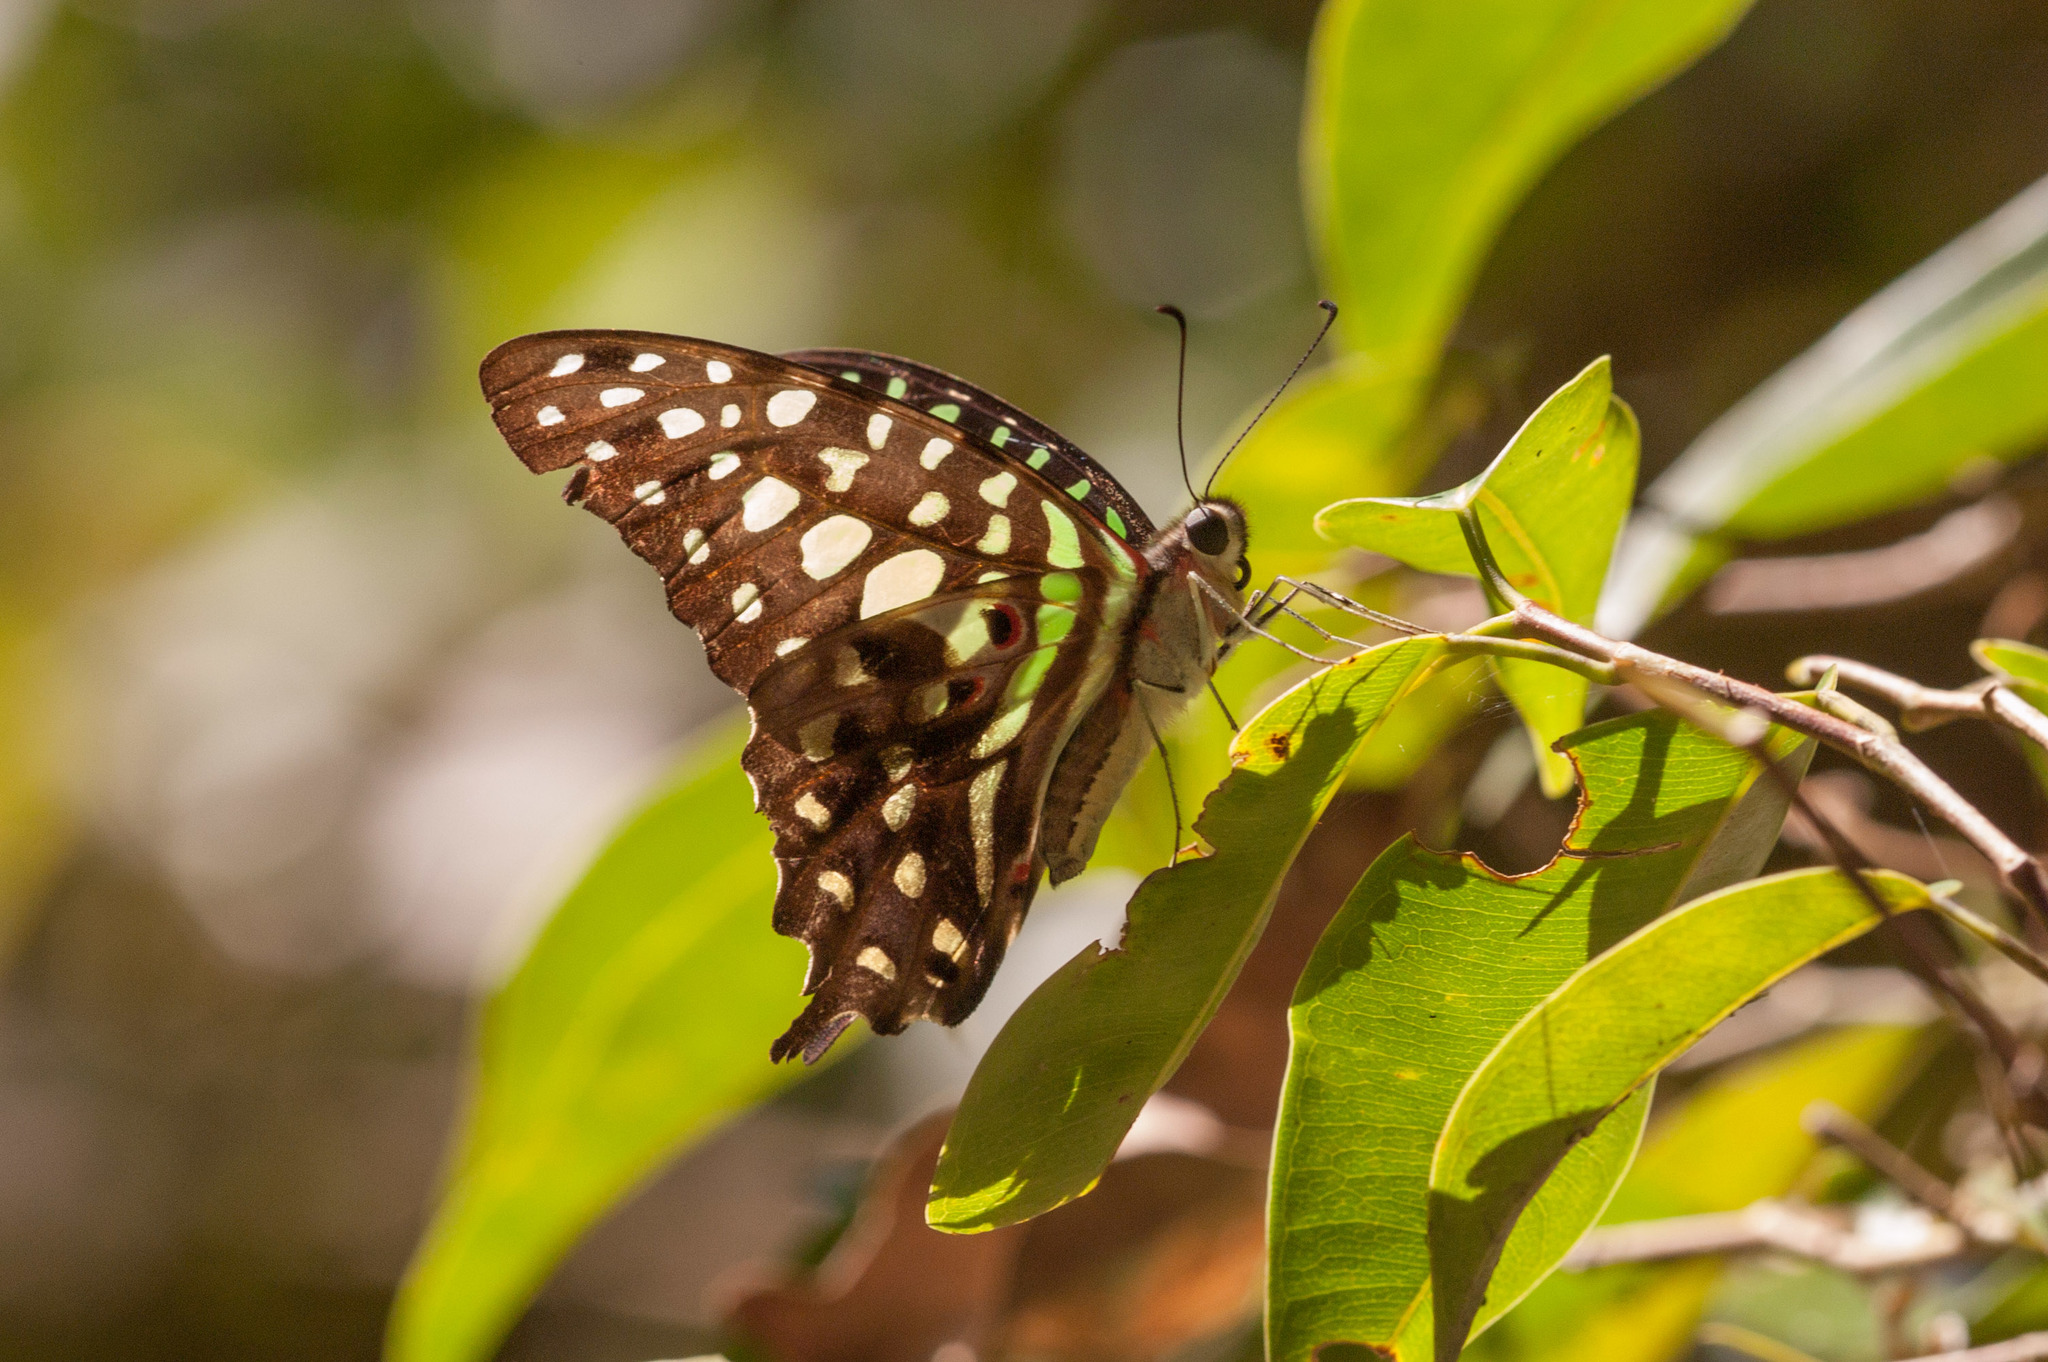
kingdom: Animalia
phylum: Arthropoda
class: Insecta
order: Lepidoptera
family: Papilionidae
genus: Graphium
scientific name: Graphium agamemnon
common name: Tailed jay
